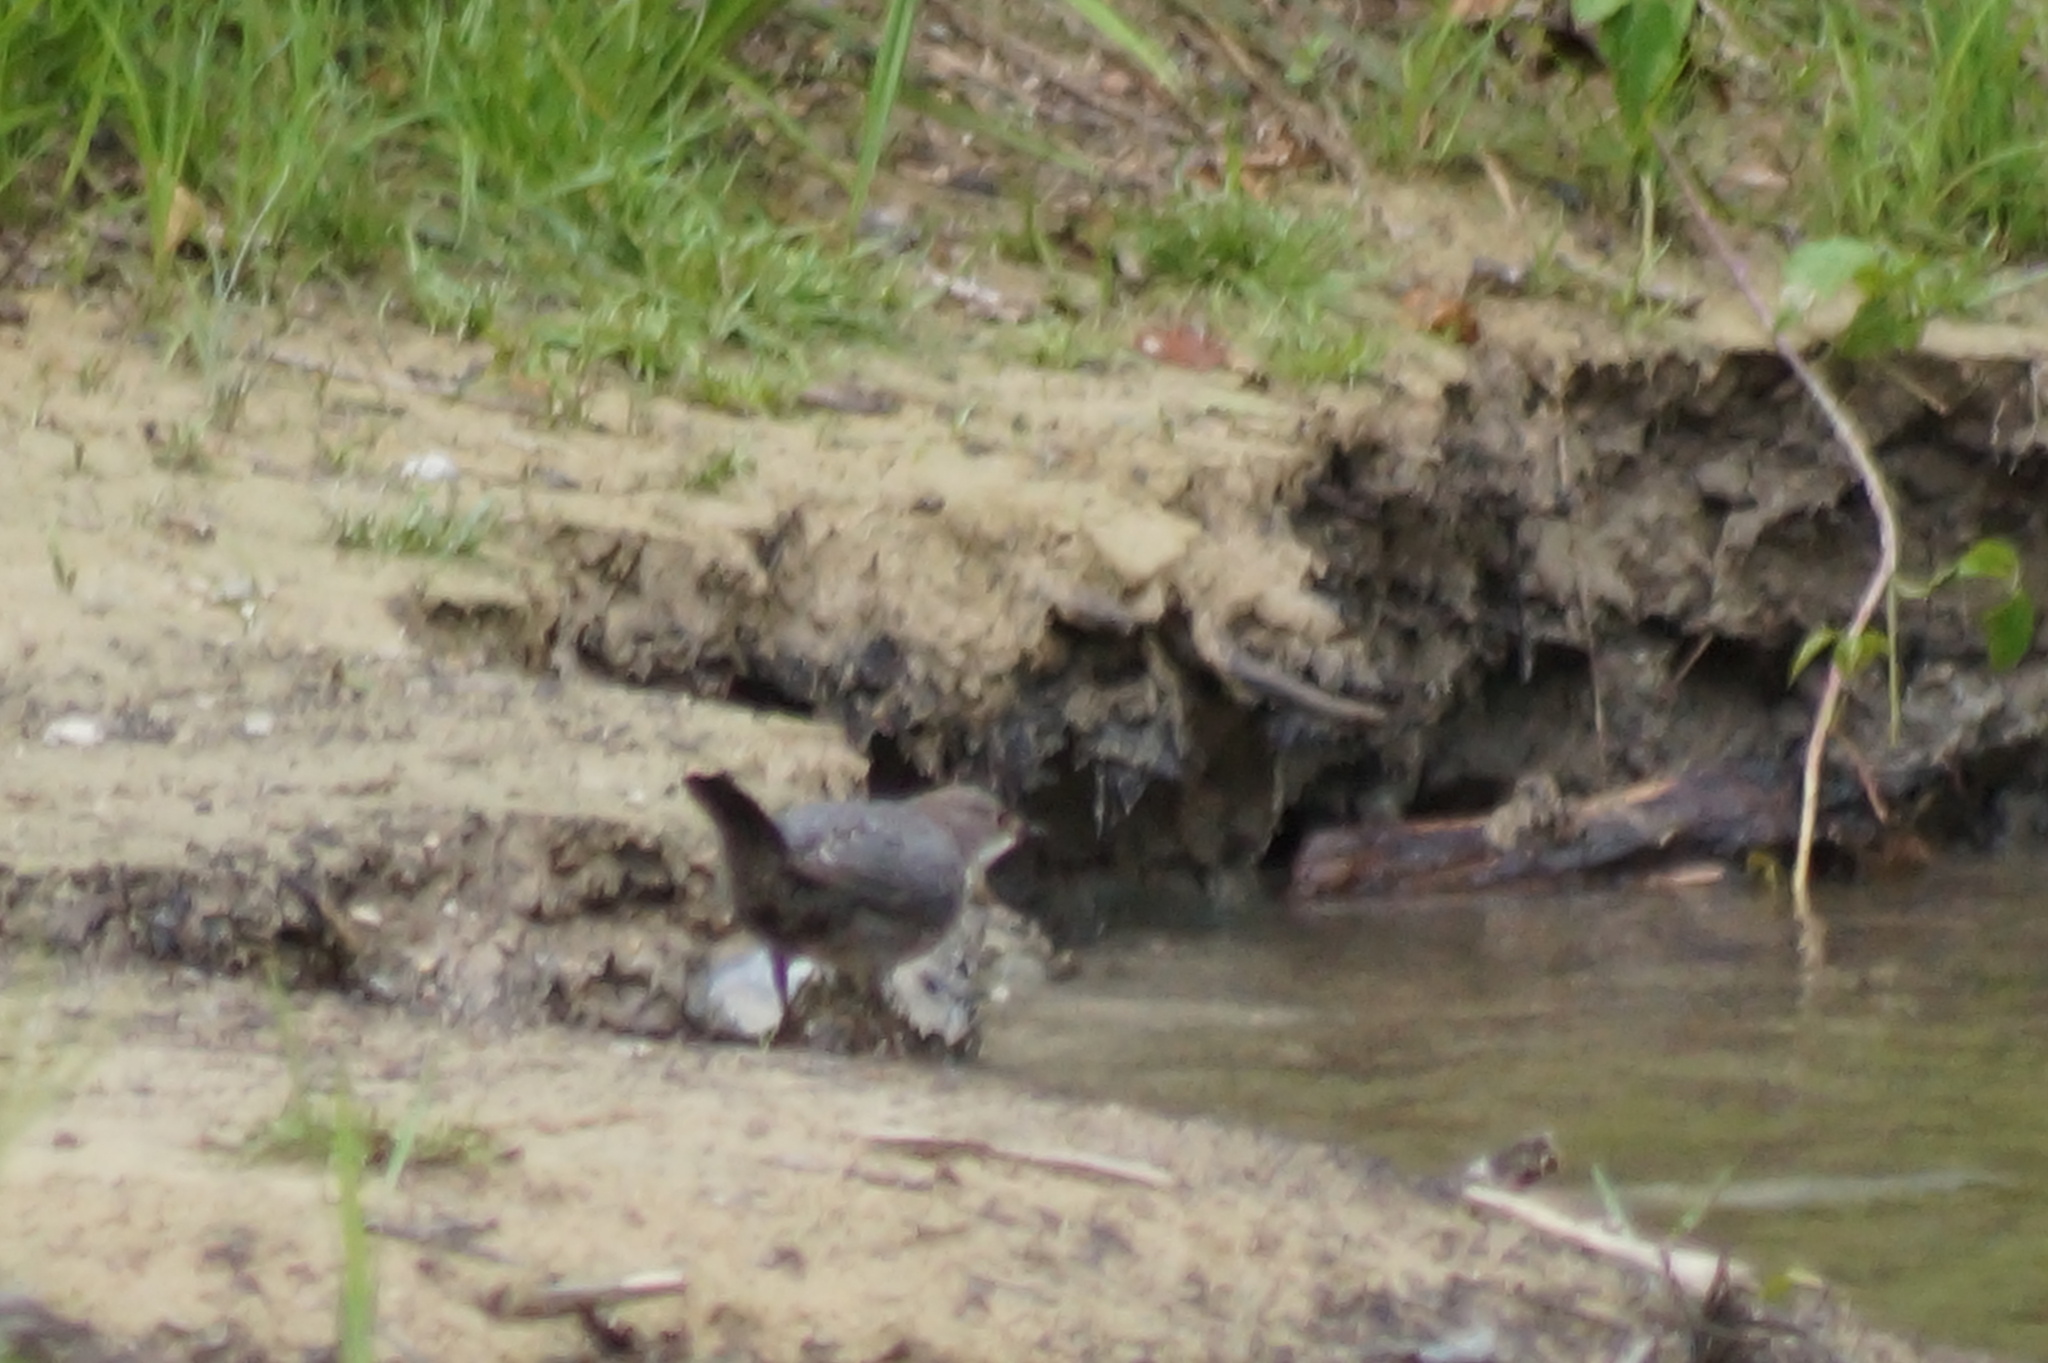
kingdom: Animalia
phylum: Chordata
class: Aves
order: Passeriformes
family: Cinclidae
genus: Cinclus
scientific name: Cinclus cinclus
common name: White-throated dipper
